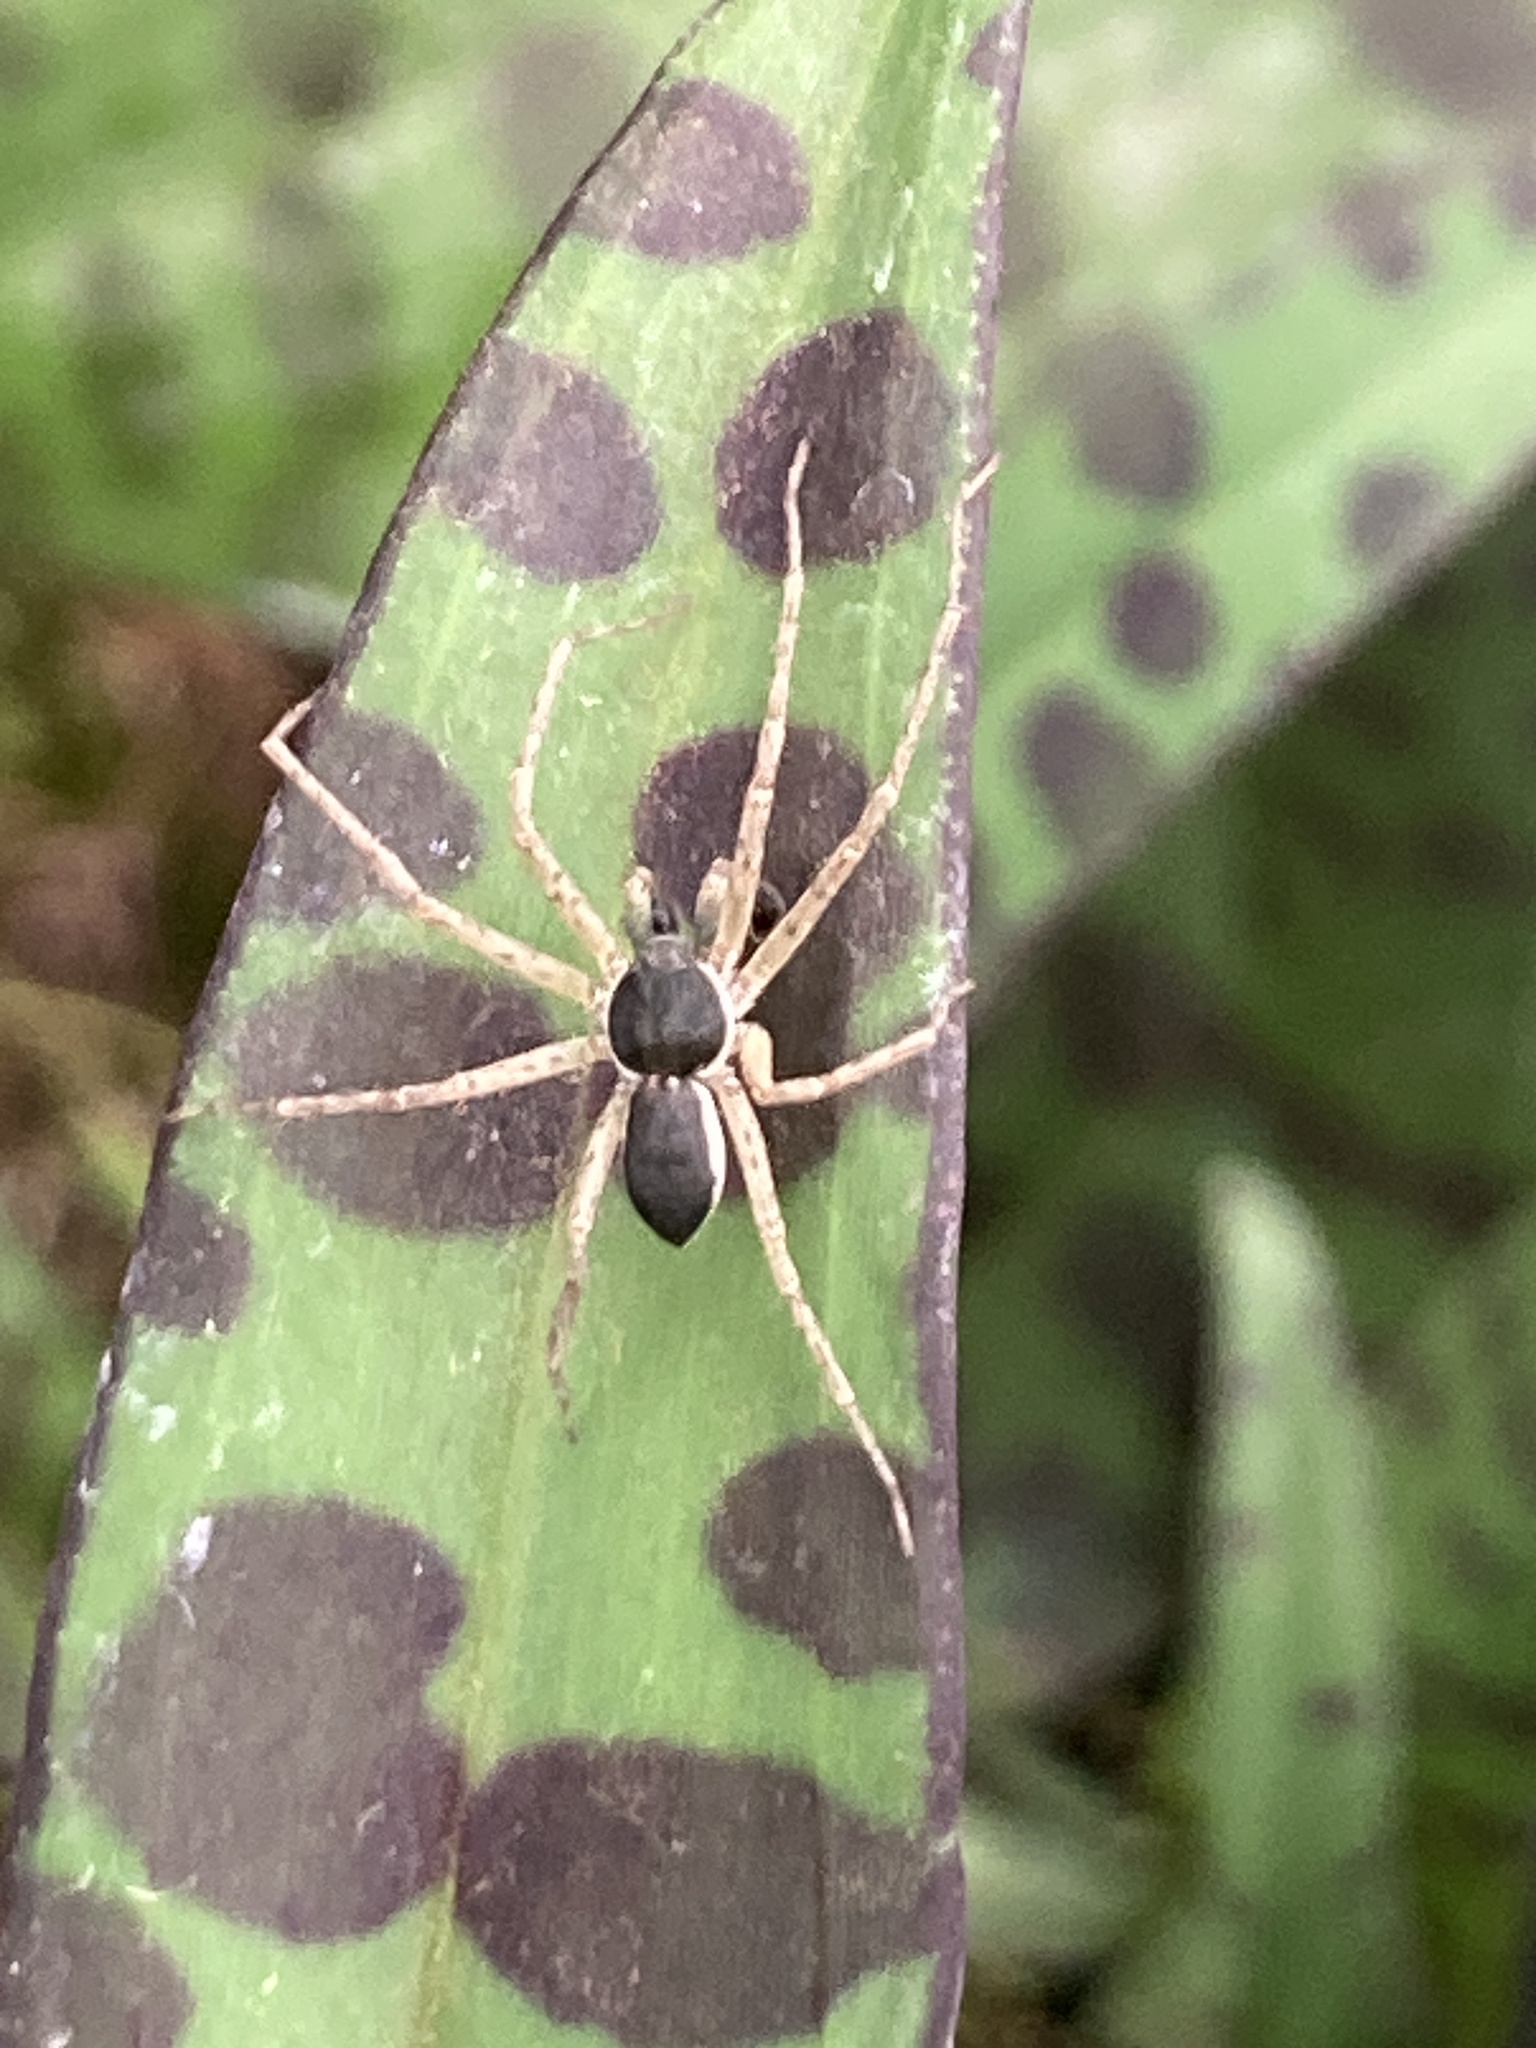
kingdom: Animalia
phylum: Arthropoda
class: Arachnida
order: Araneae
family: Philodromidae
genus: Philodromus
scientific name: Philodromus dispar
